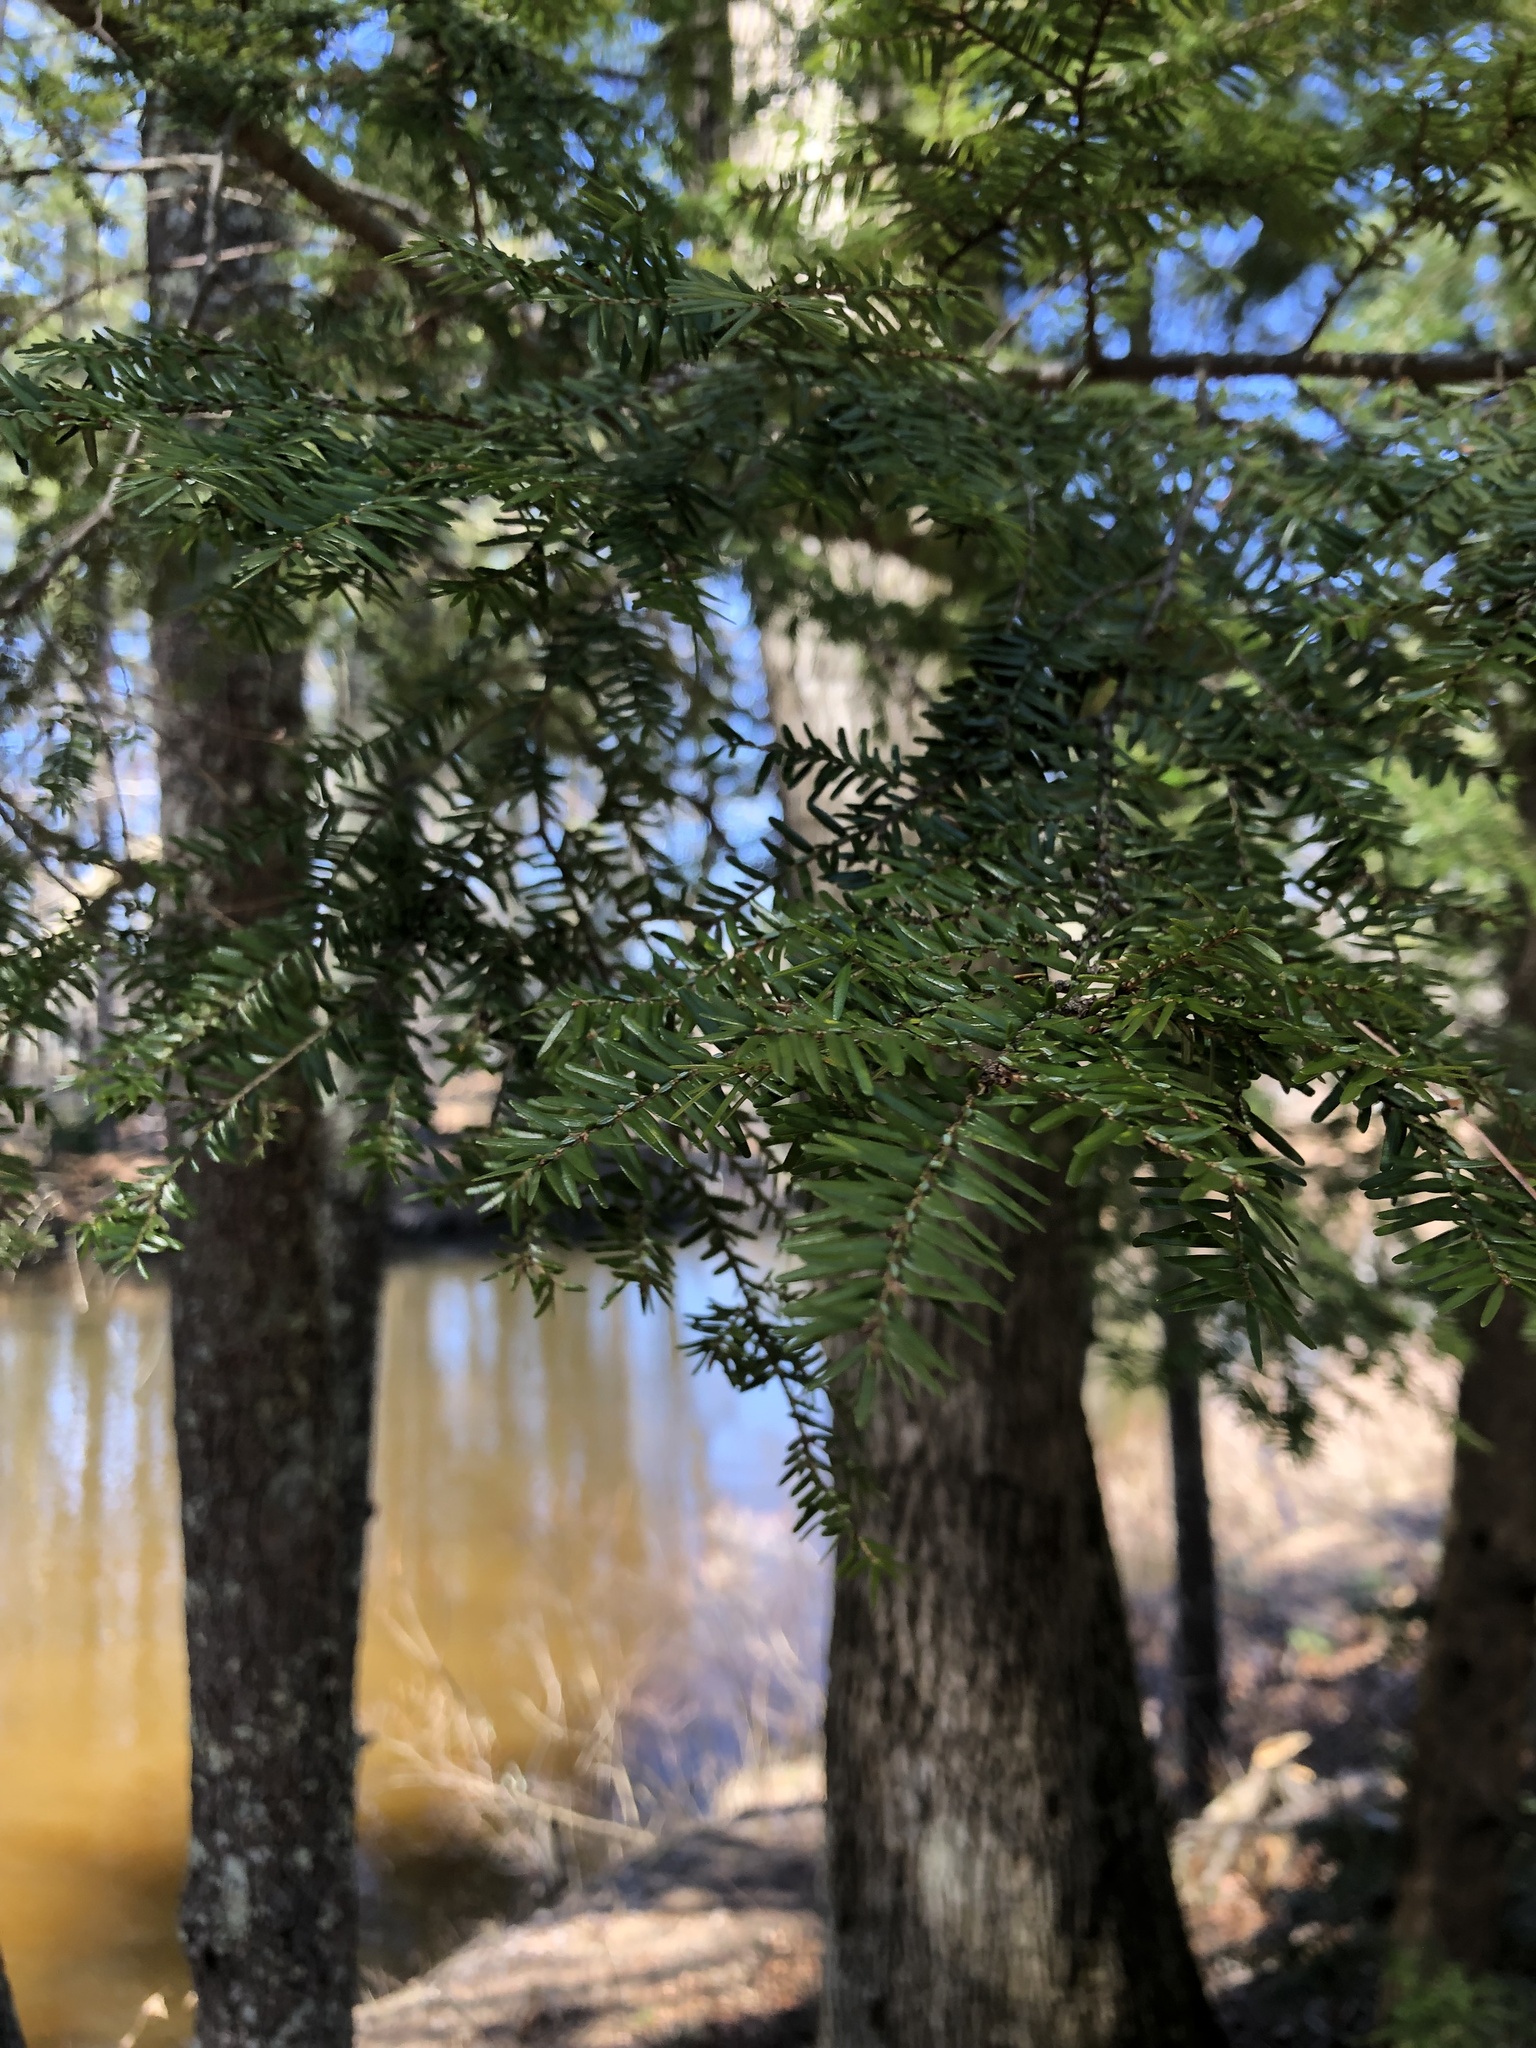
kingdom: Plantae
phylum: Tracheophyta
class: Pinopsida
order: Pinales
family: Pinaceae
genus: Tsuga
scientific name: Tsuga canadensis
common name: Eastern hemlock
